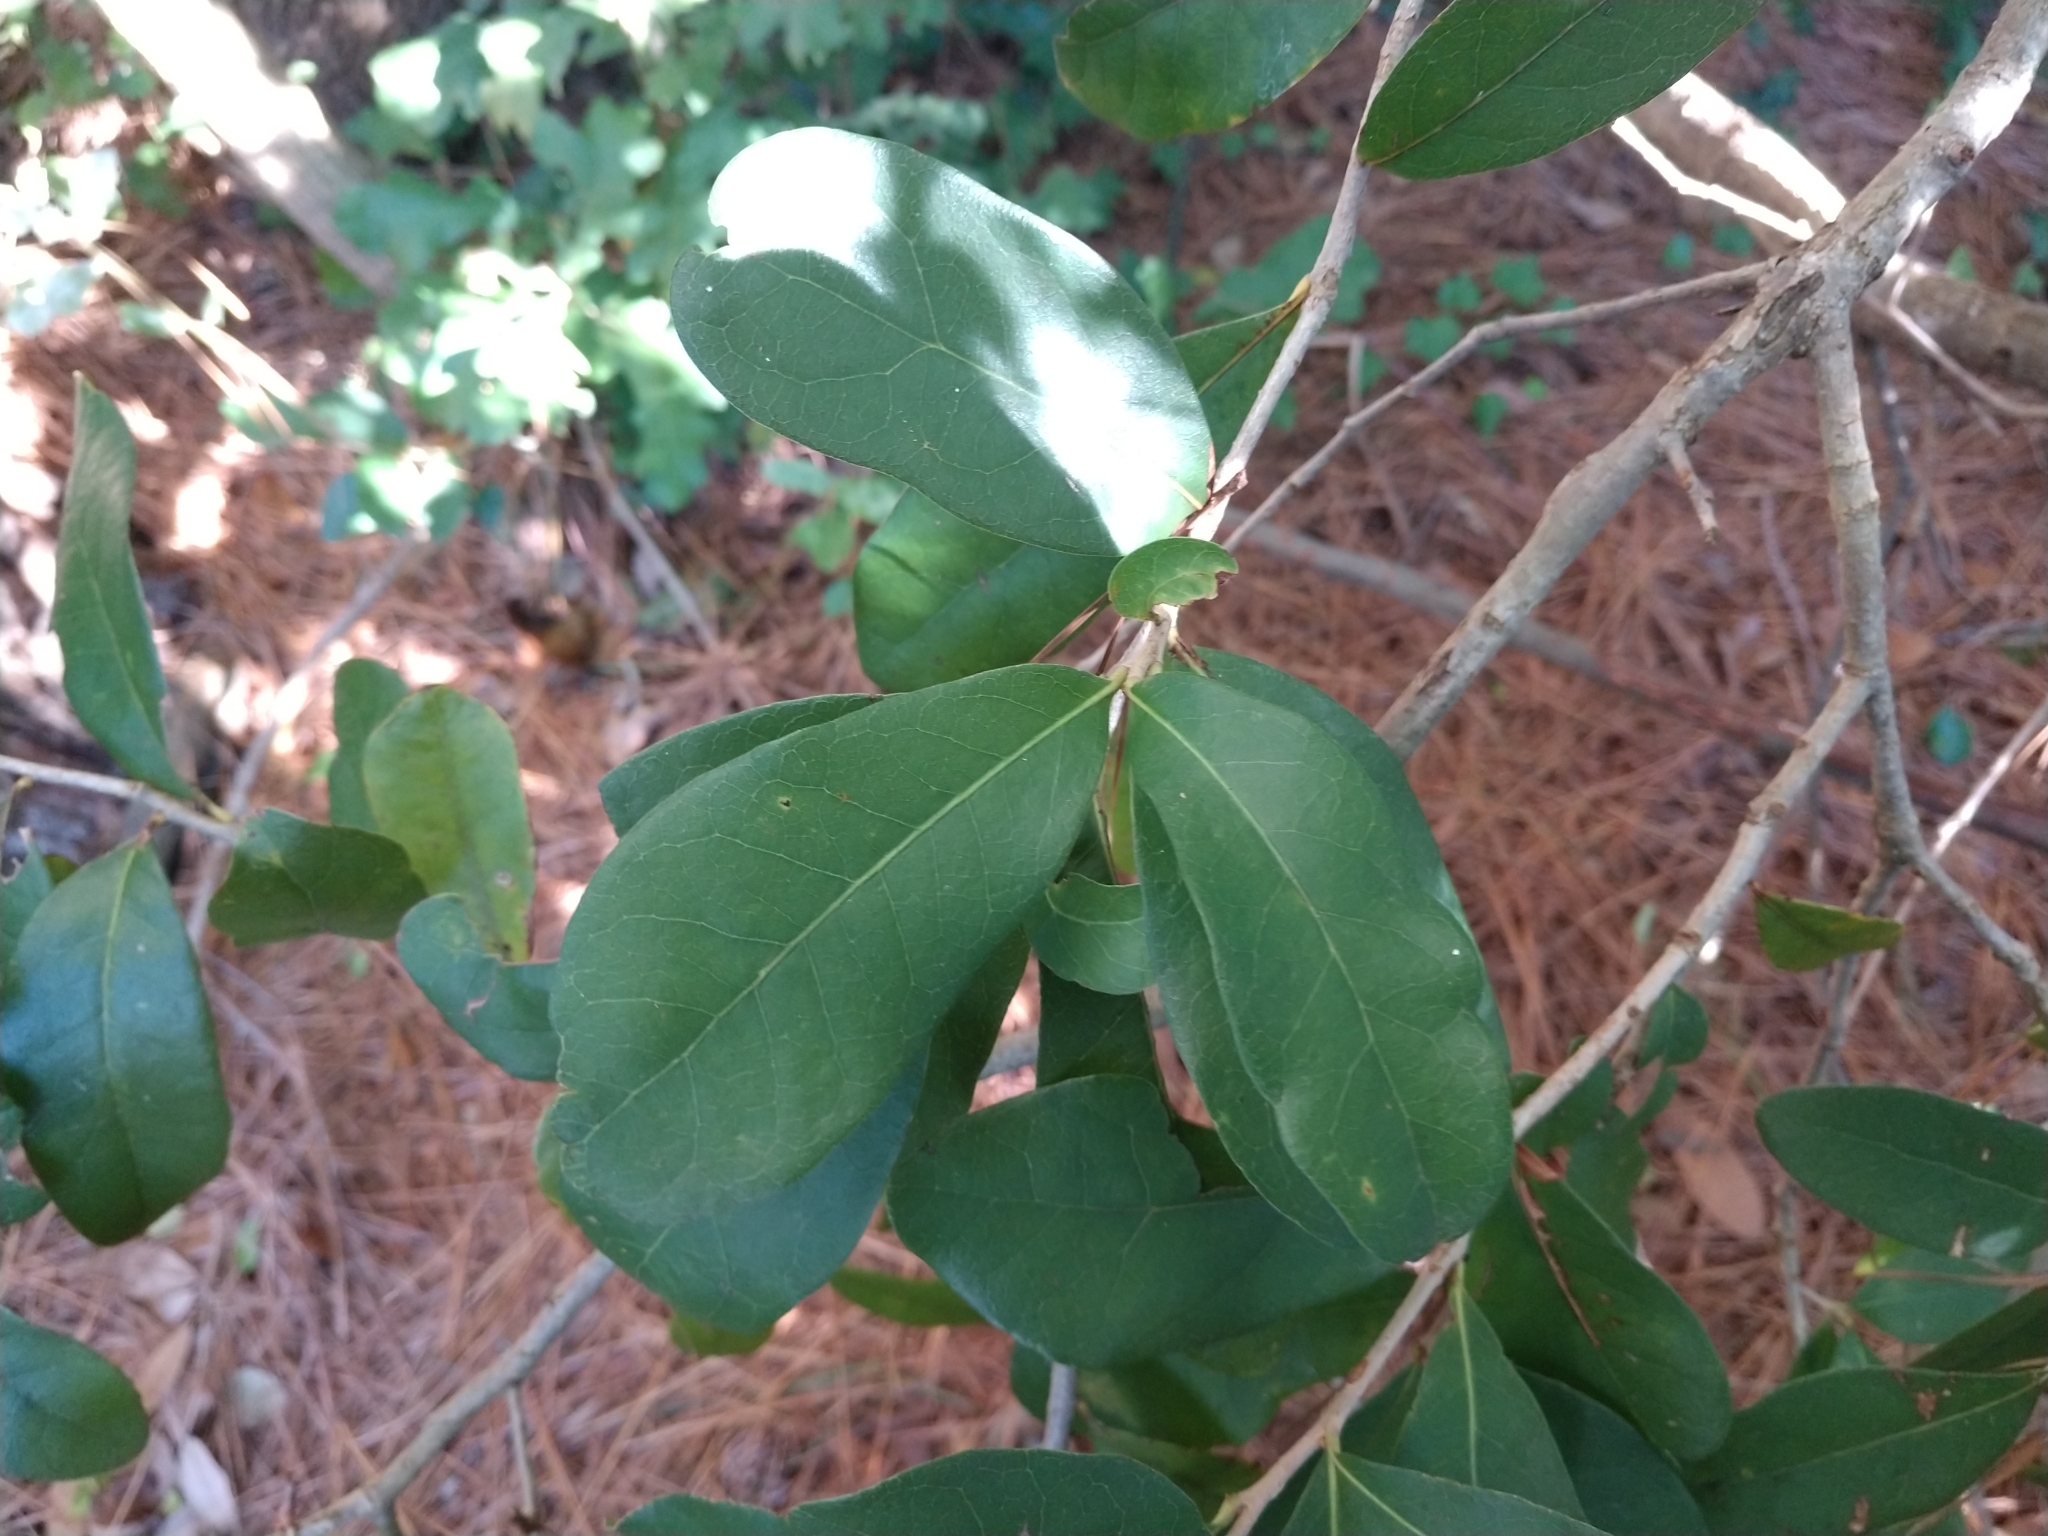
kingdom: Plantae
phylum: Tracheophyta
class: Magnoliopsida
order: Fagales
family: Fagaceae
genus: Quercus
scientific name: Quercus virginiana
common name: Southern live oak
